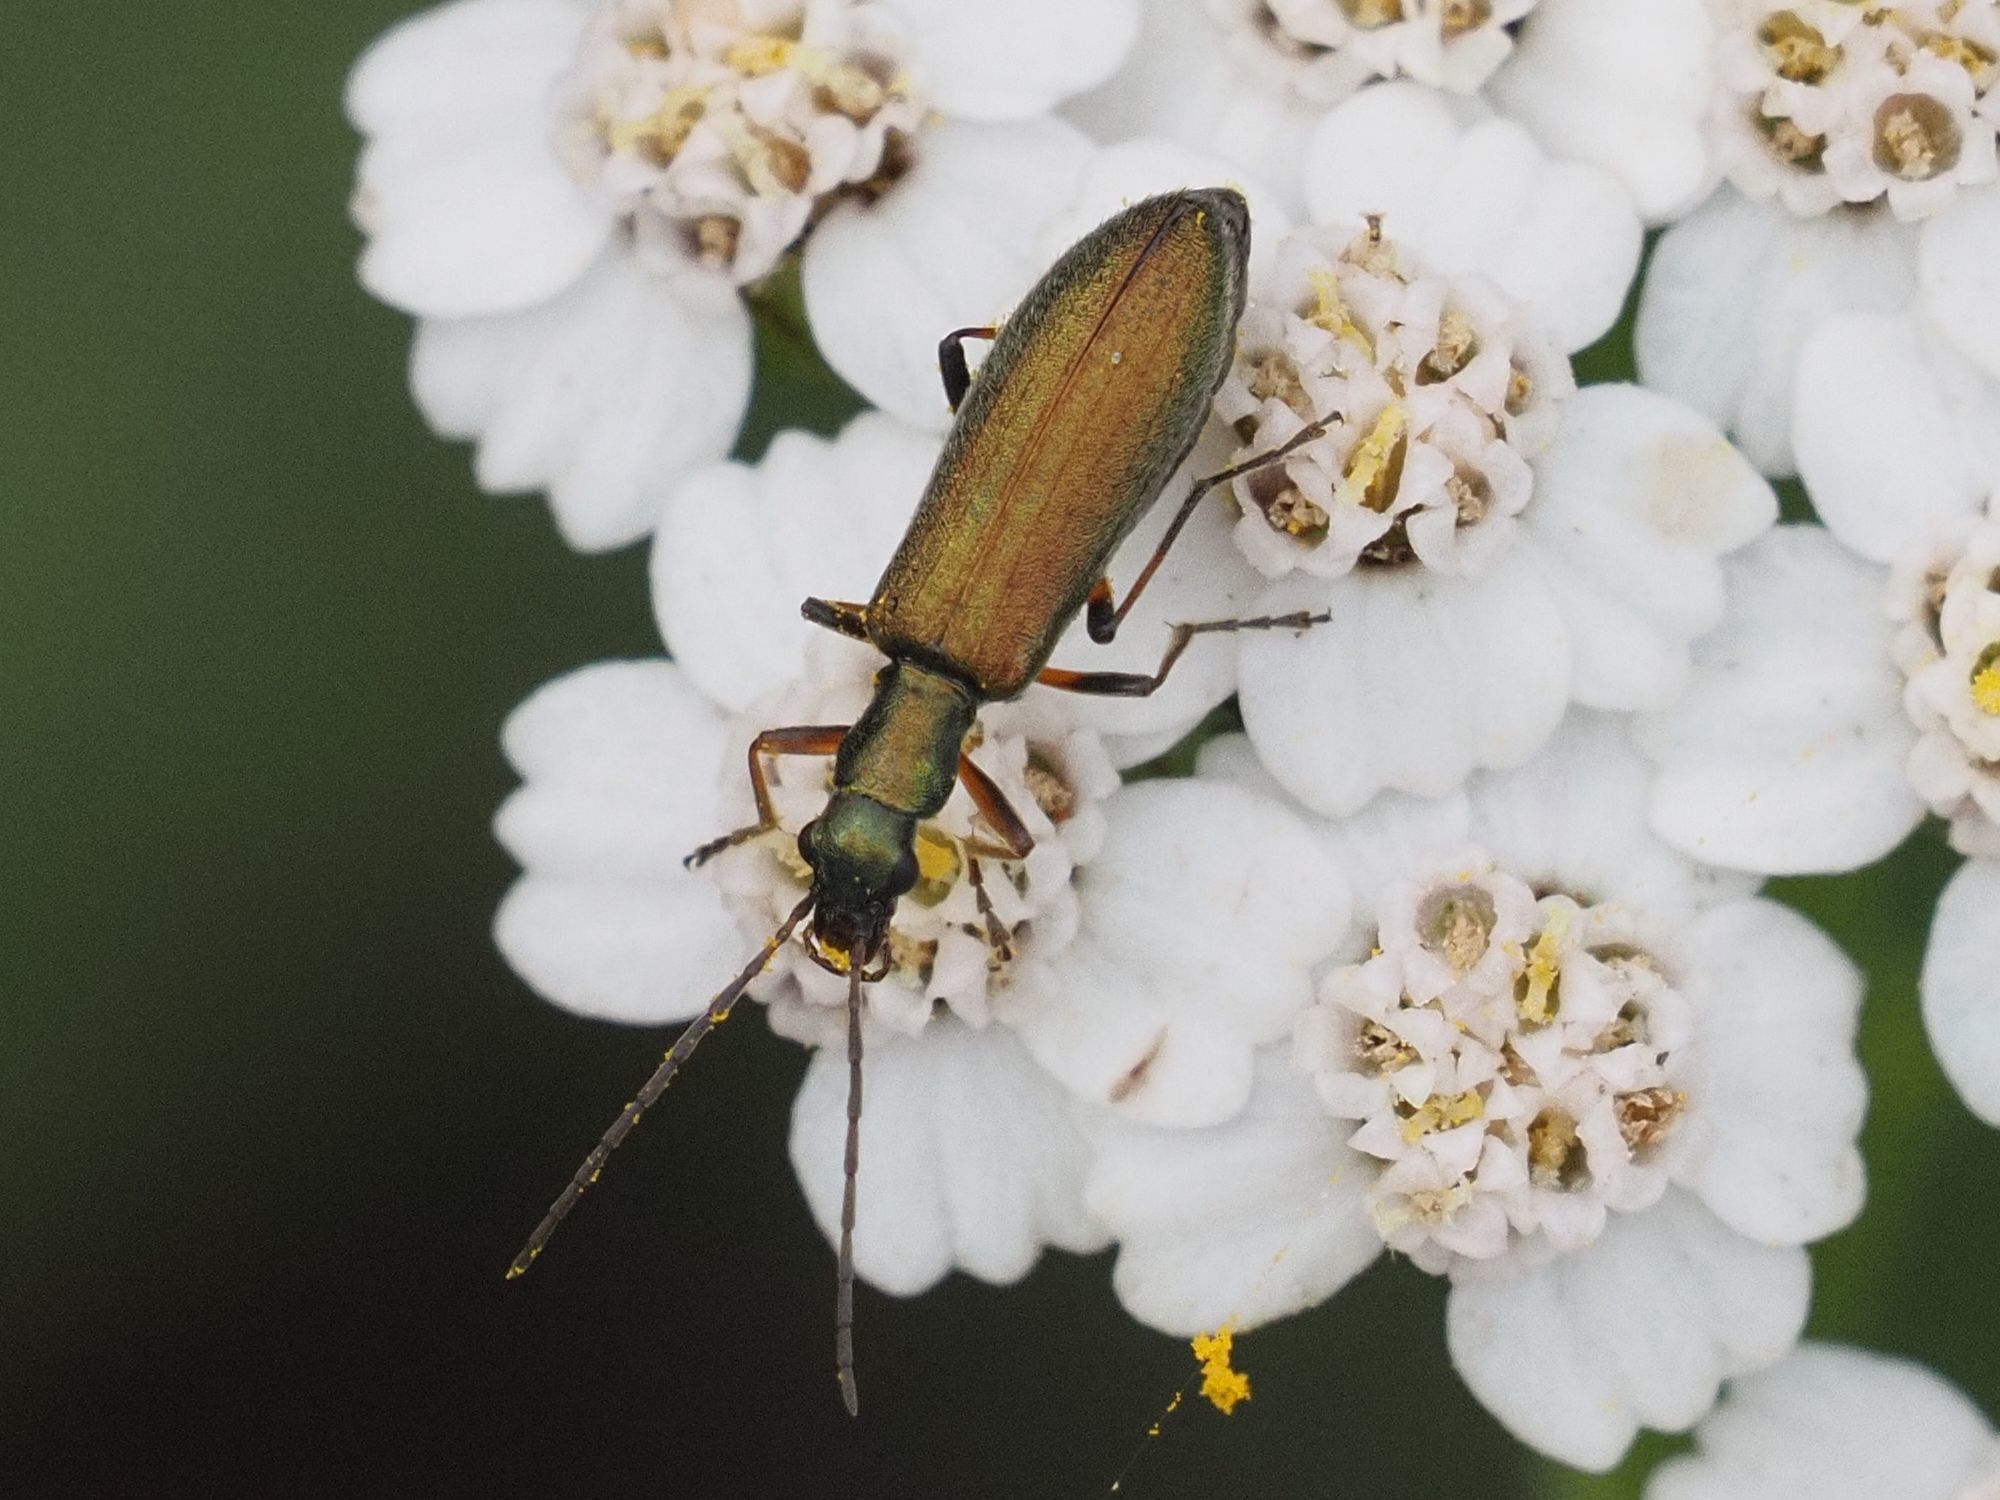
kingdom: Animalia
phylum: Arthropoda
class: Insecta
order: Coleoptera
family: Oedemeridae
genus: Chrysanthia
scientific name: Chrysanthia geniculata
